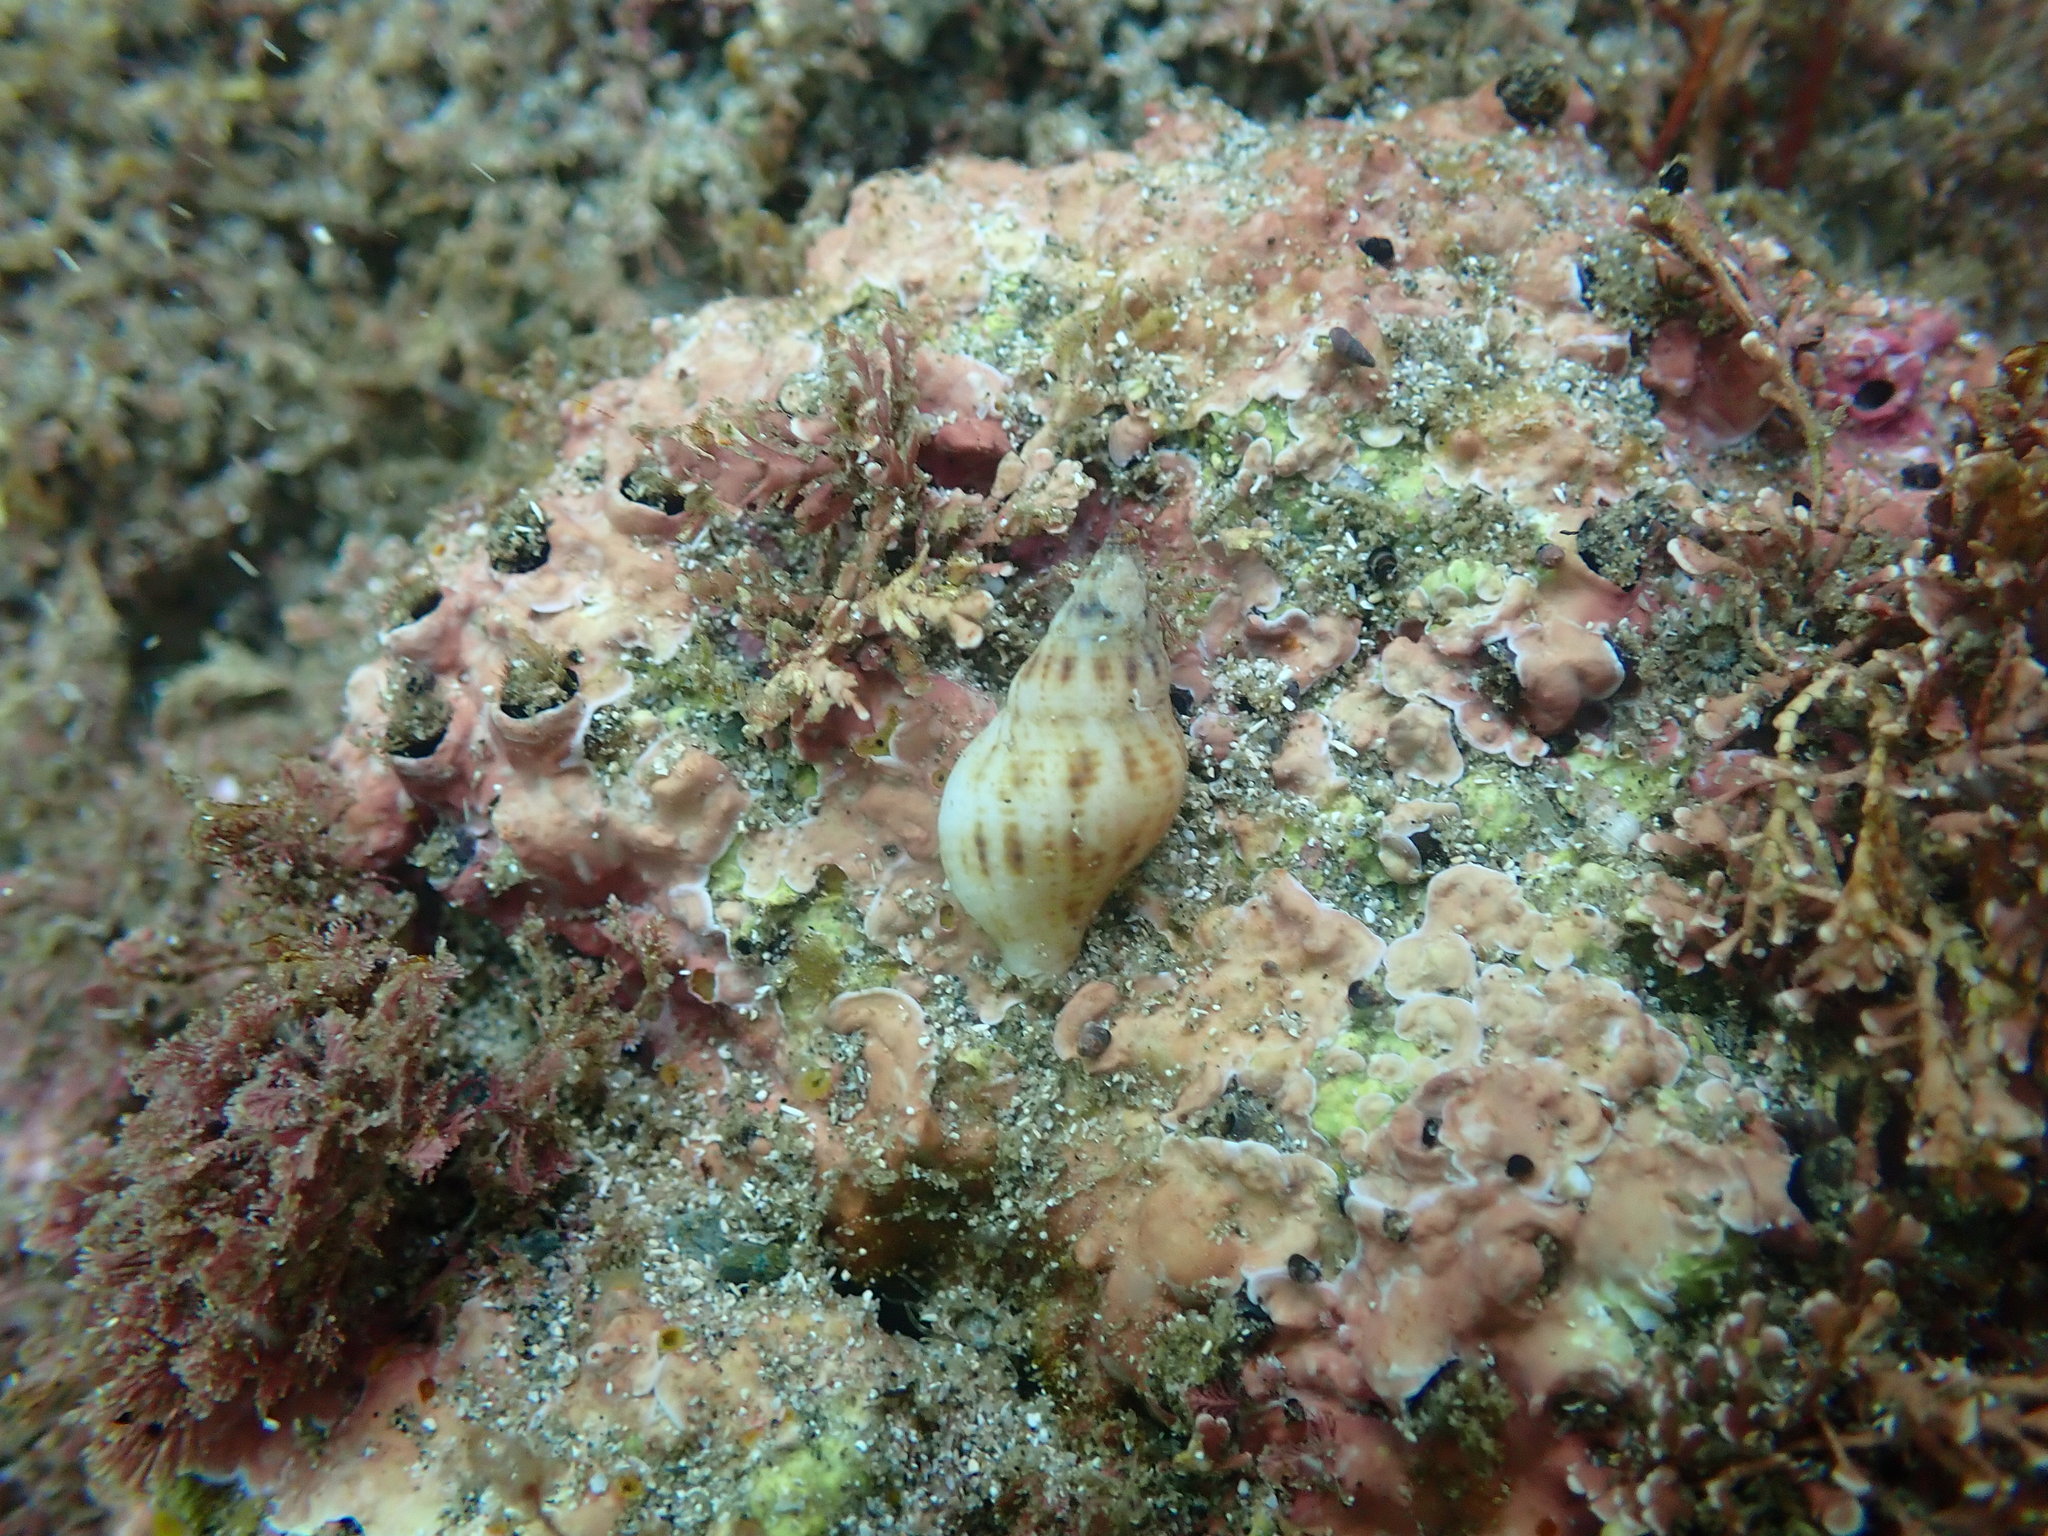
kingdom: Animalia
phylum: Mollusca
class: Gastropoda
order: Neogastropoda
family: Tudiclidae
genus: Buccinulum
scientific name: Buccinulum vittatum
